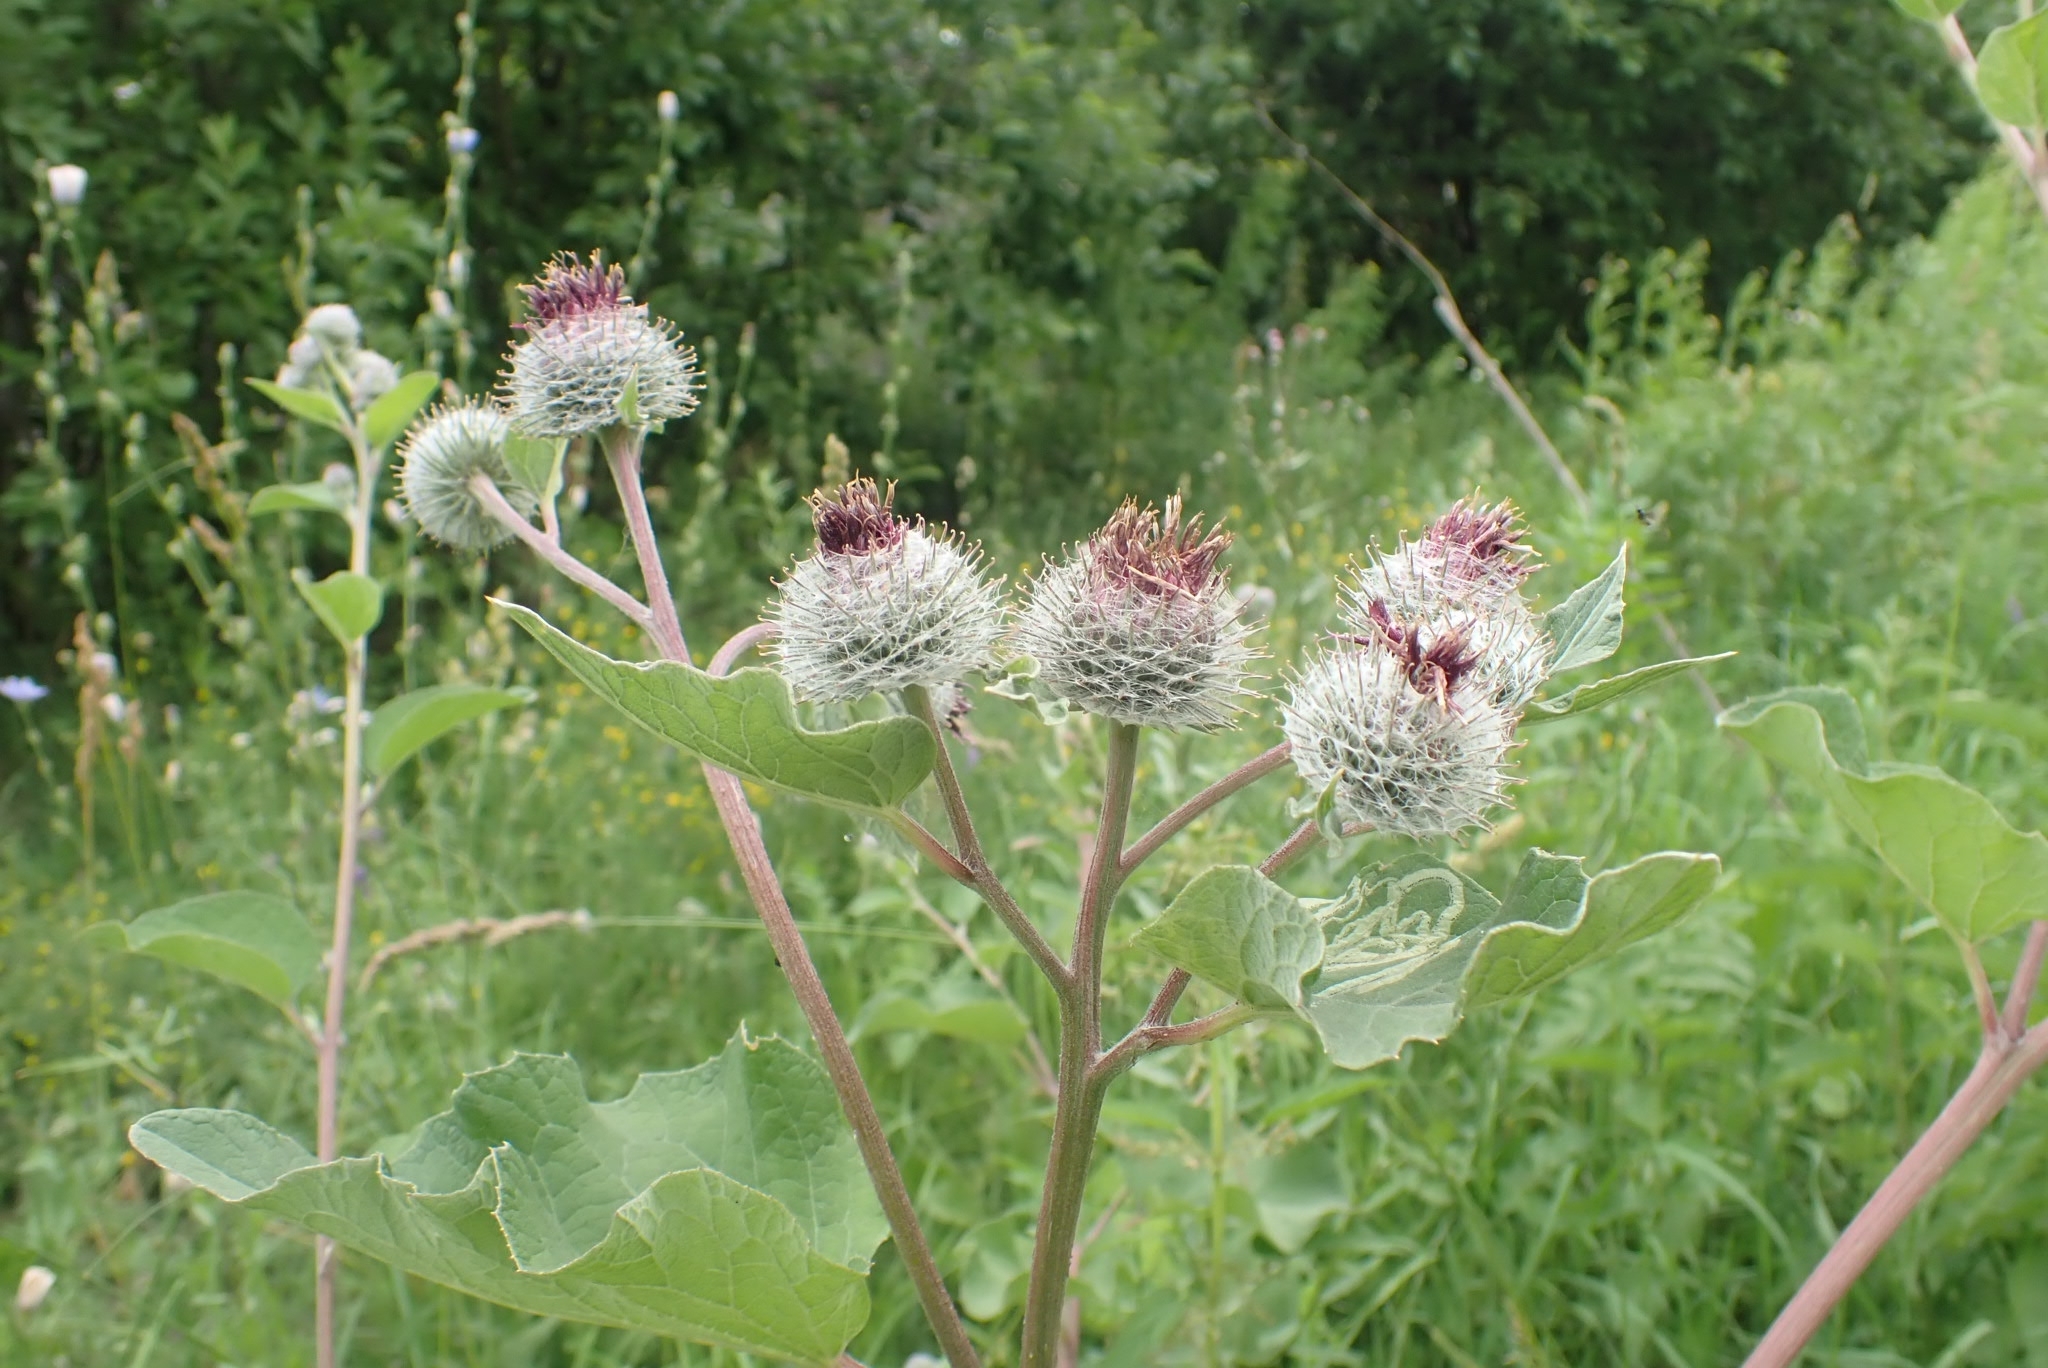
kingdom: Plantae
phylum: Tracheophyta
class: Magnoliopsida
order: Asterales
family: Asteraceae
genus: Arctium
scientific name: Arctium tomentosum
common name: Woolly burdock
